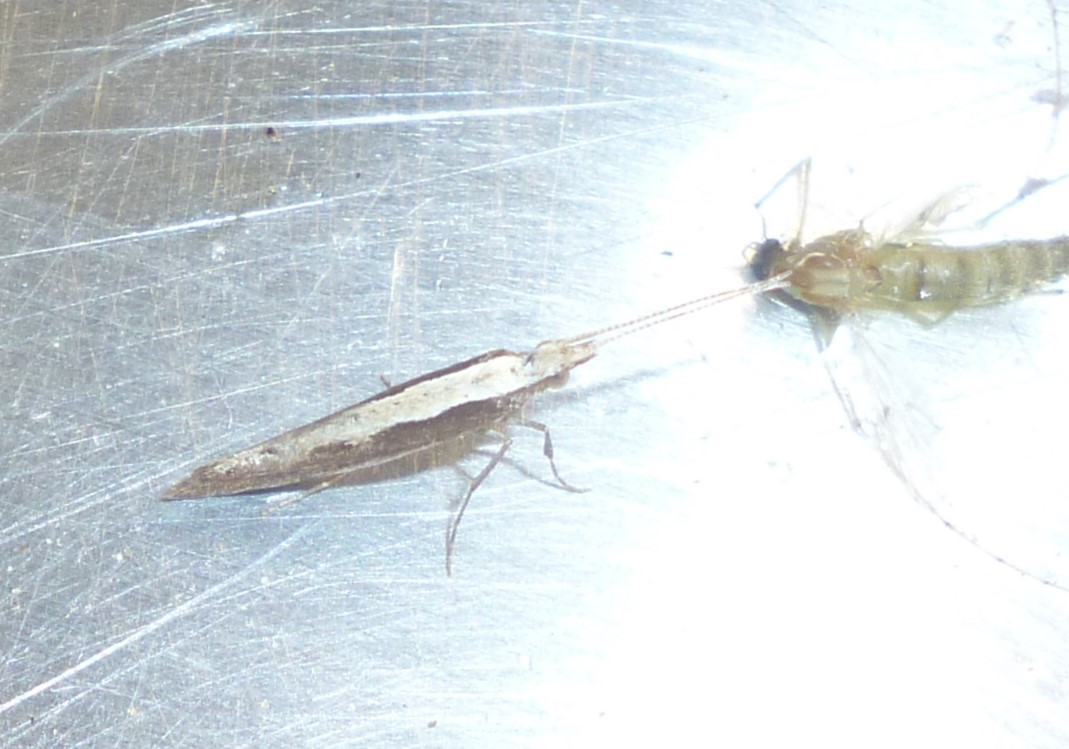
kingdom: Animalia
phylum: Arthropoda
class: Insecta
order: Lepidoptera
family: Plutellidae
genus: Plutella
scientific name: Plutella xylostella
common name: Diamond-back moth
